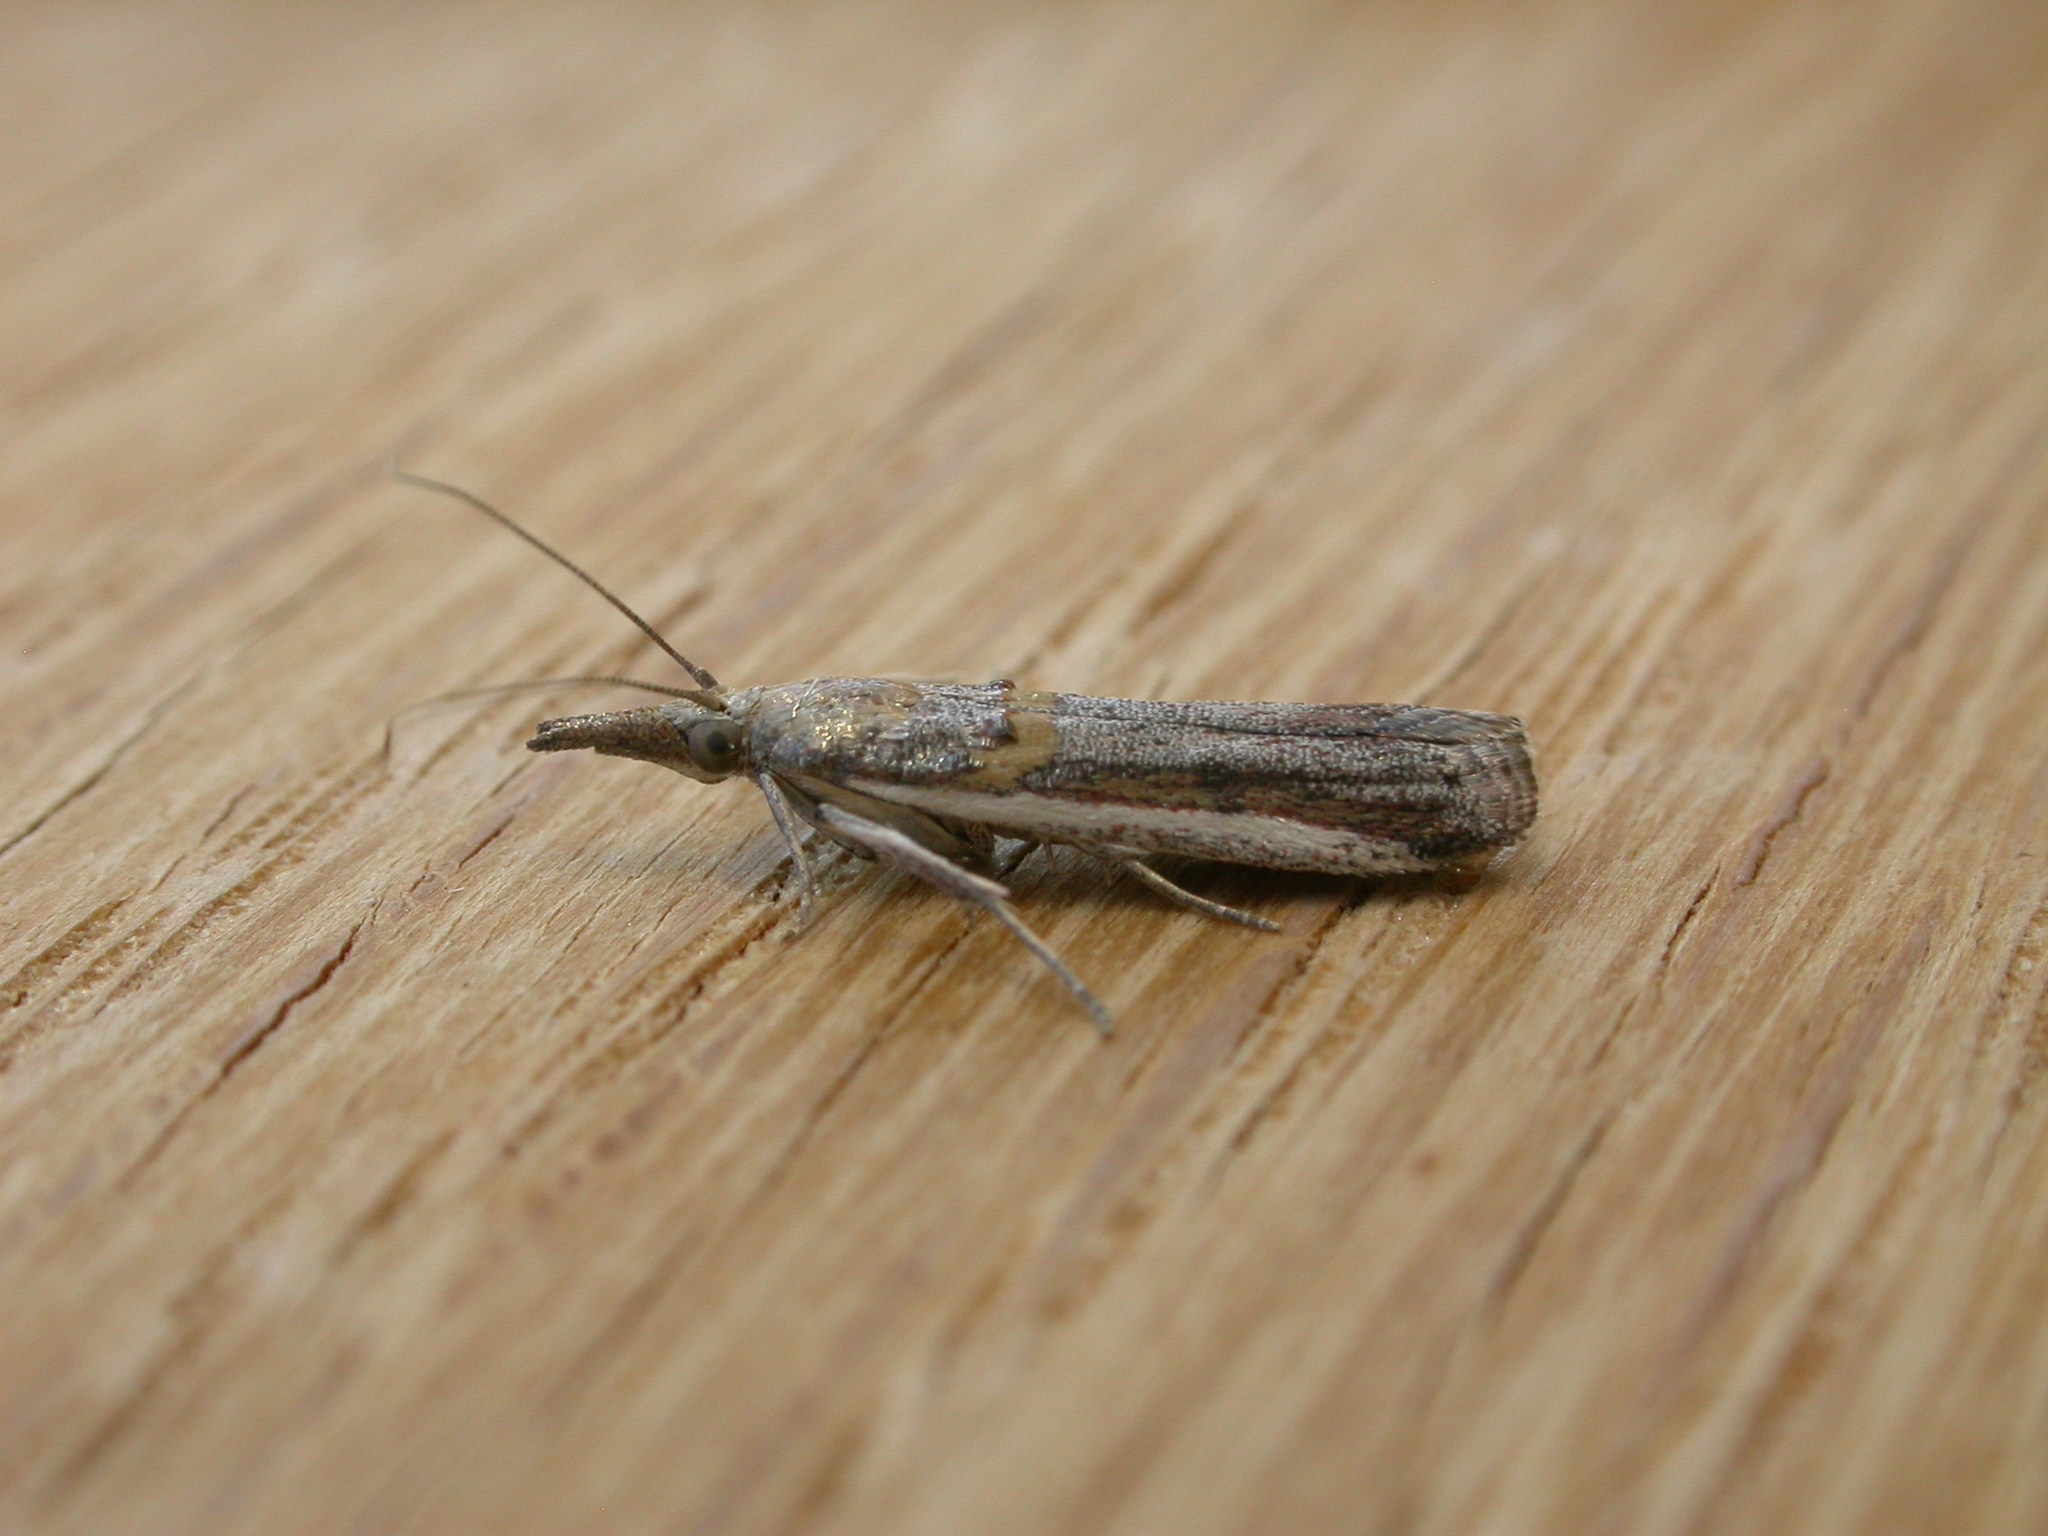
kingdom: Animalia
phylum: Arthropoda
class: Insecta
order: Lepidoptera
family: Pyralidae
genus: Etiella
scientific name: Etiella behrii
